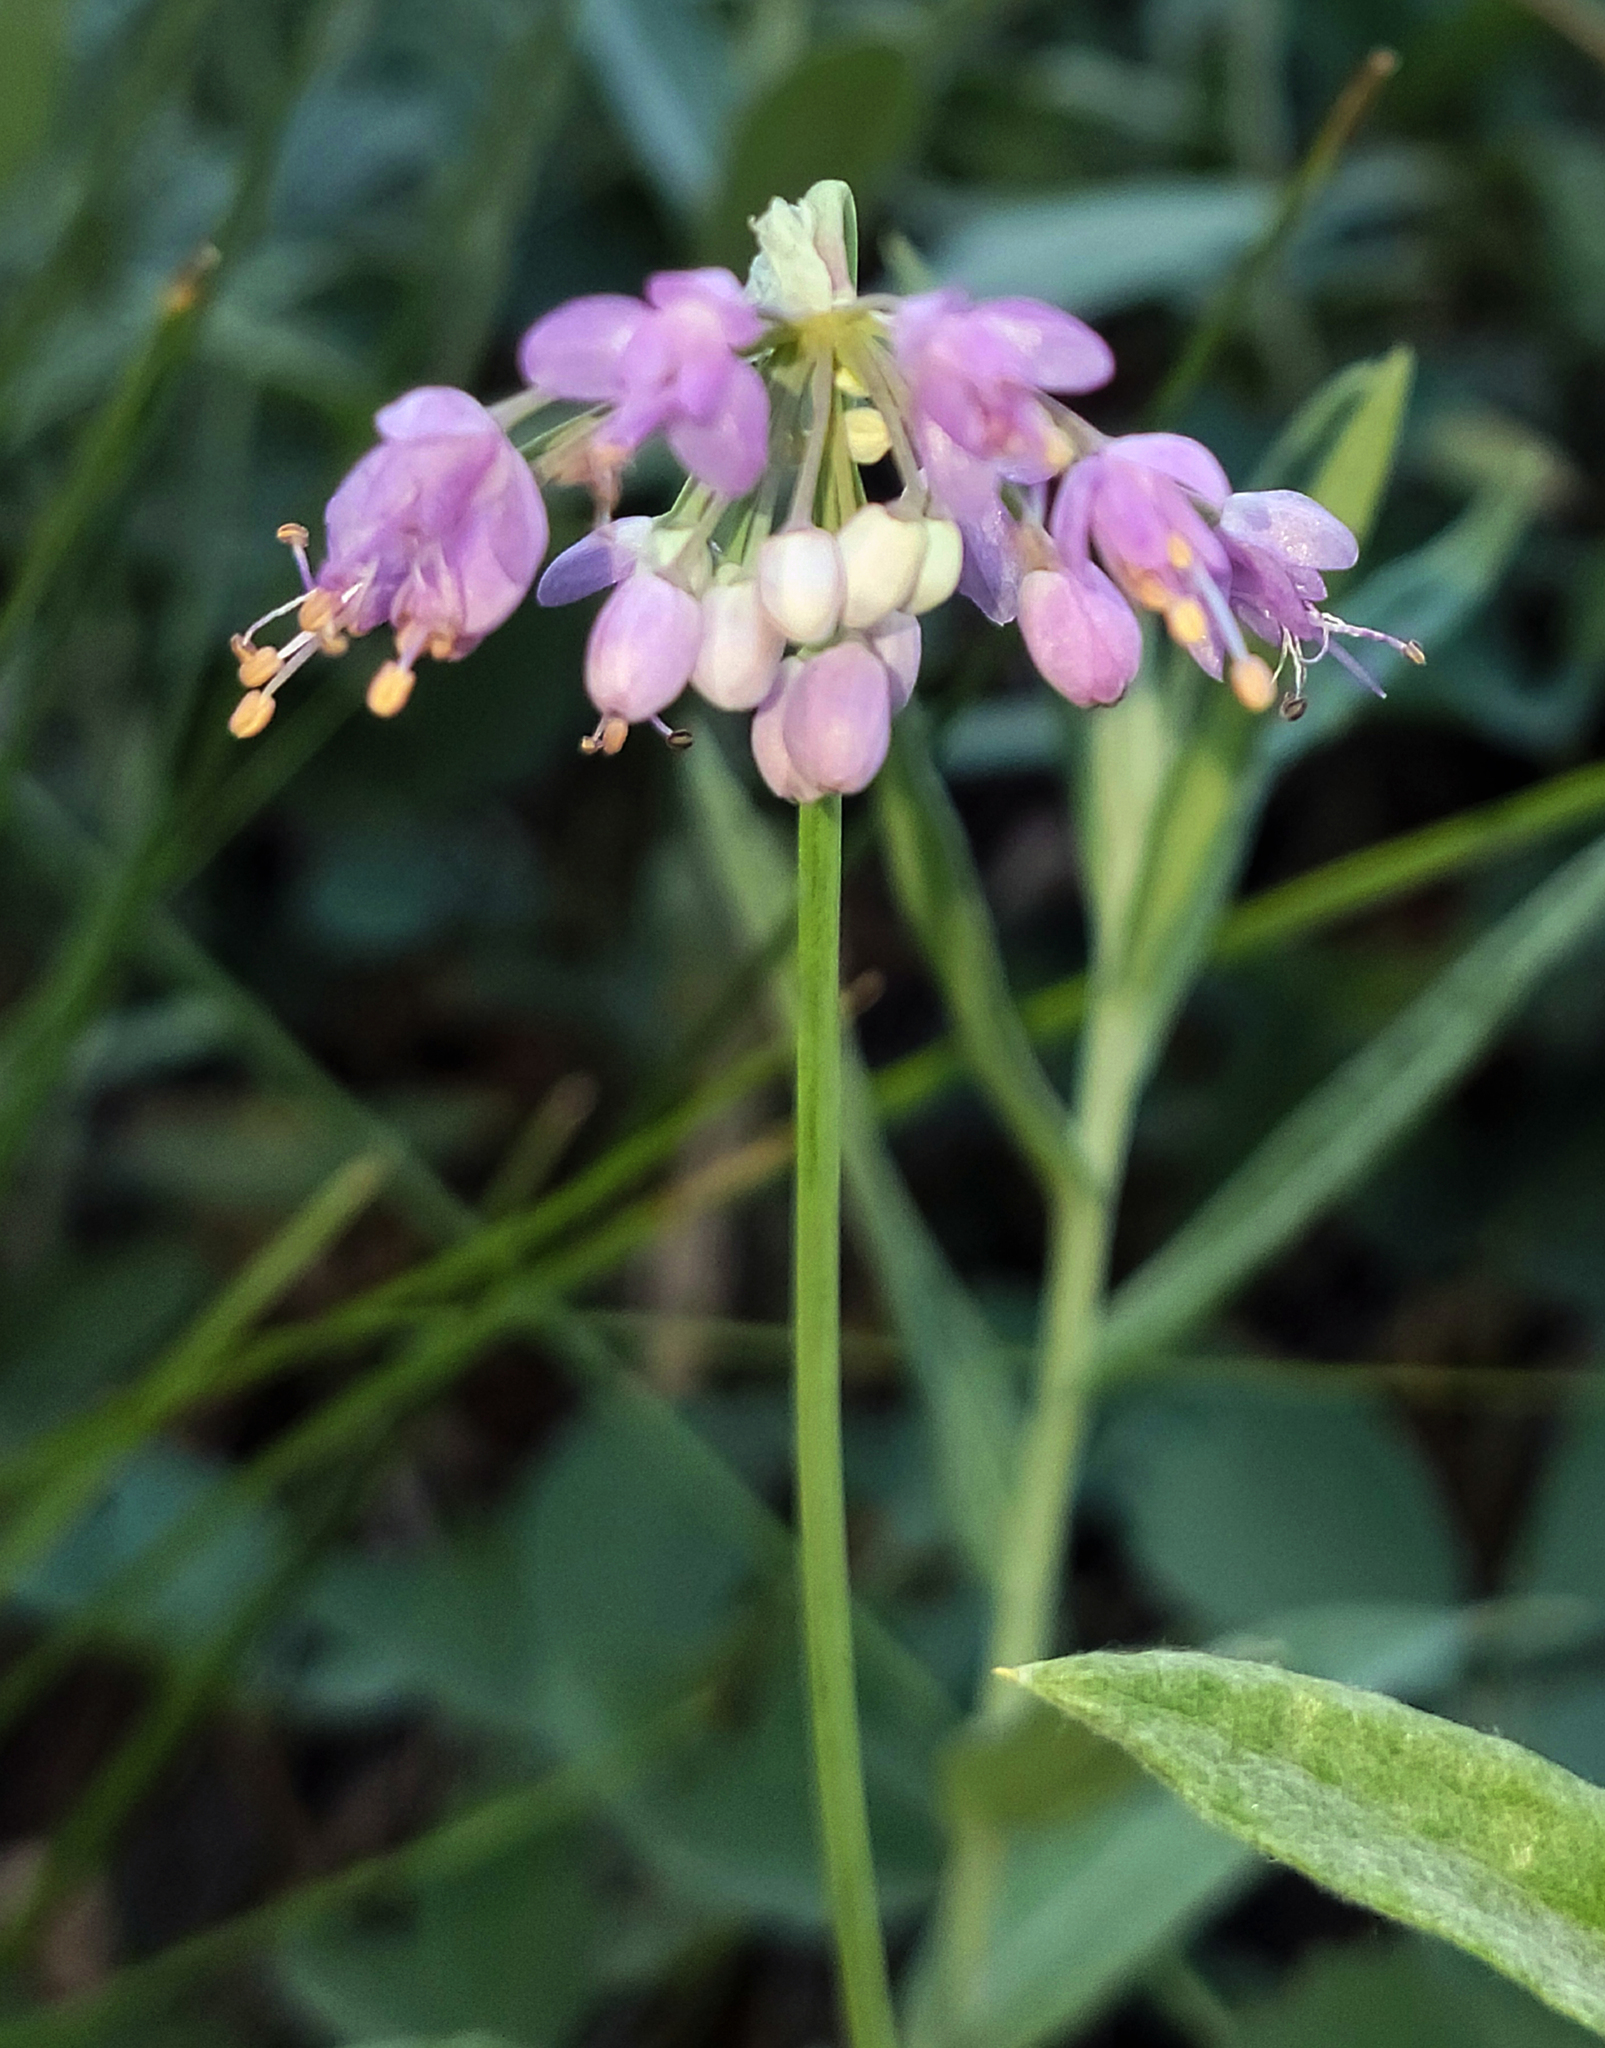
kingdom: Plantae
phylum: Tracheophyta
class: Liliopsida
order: Asparagales
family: Amaryllidaceae
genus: Allium
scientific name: Allium cernuum
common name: Nodding onion
